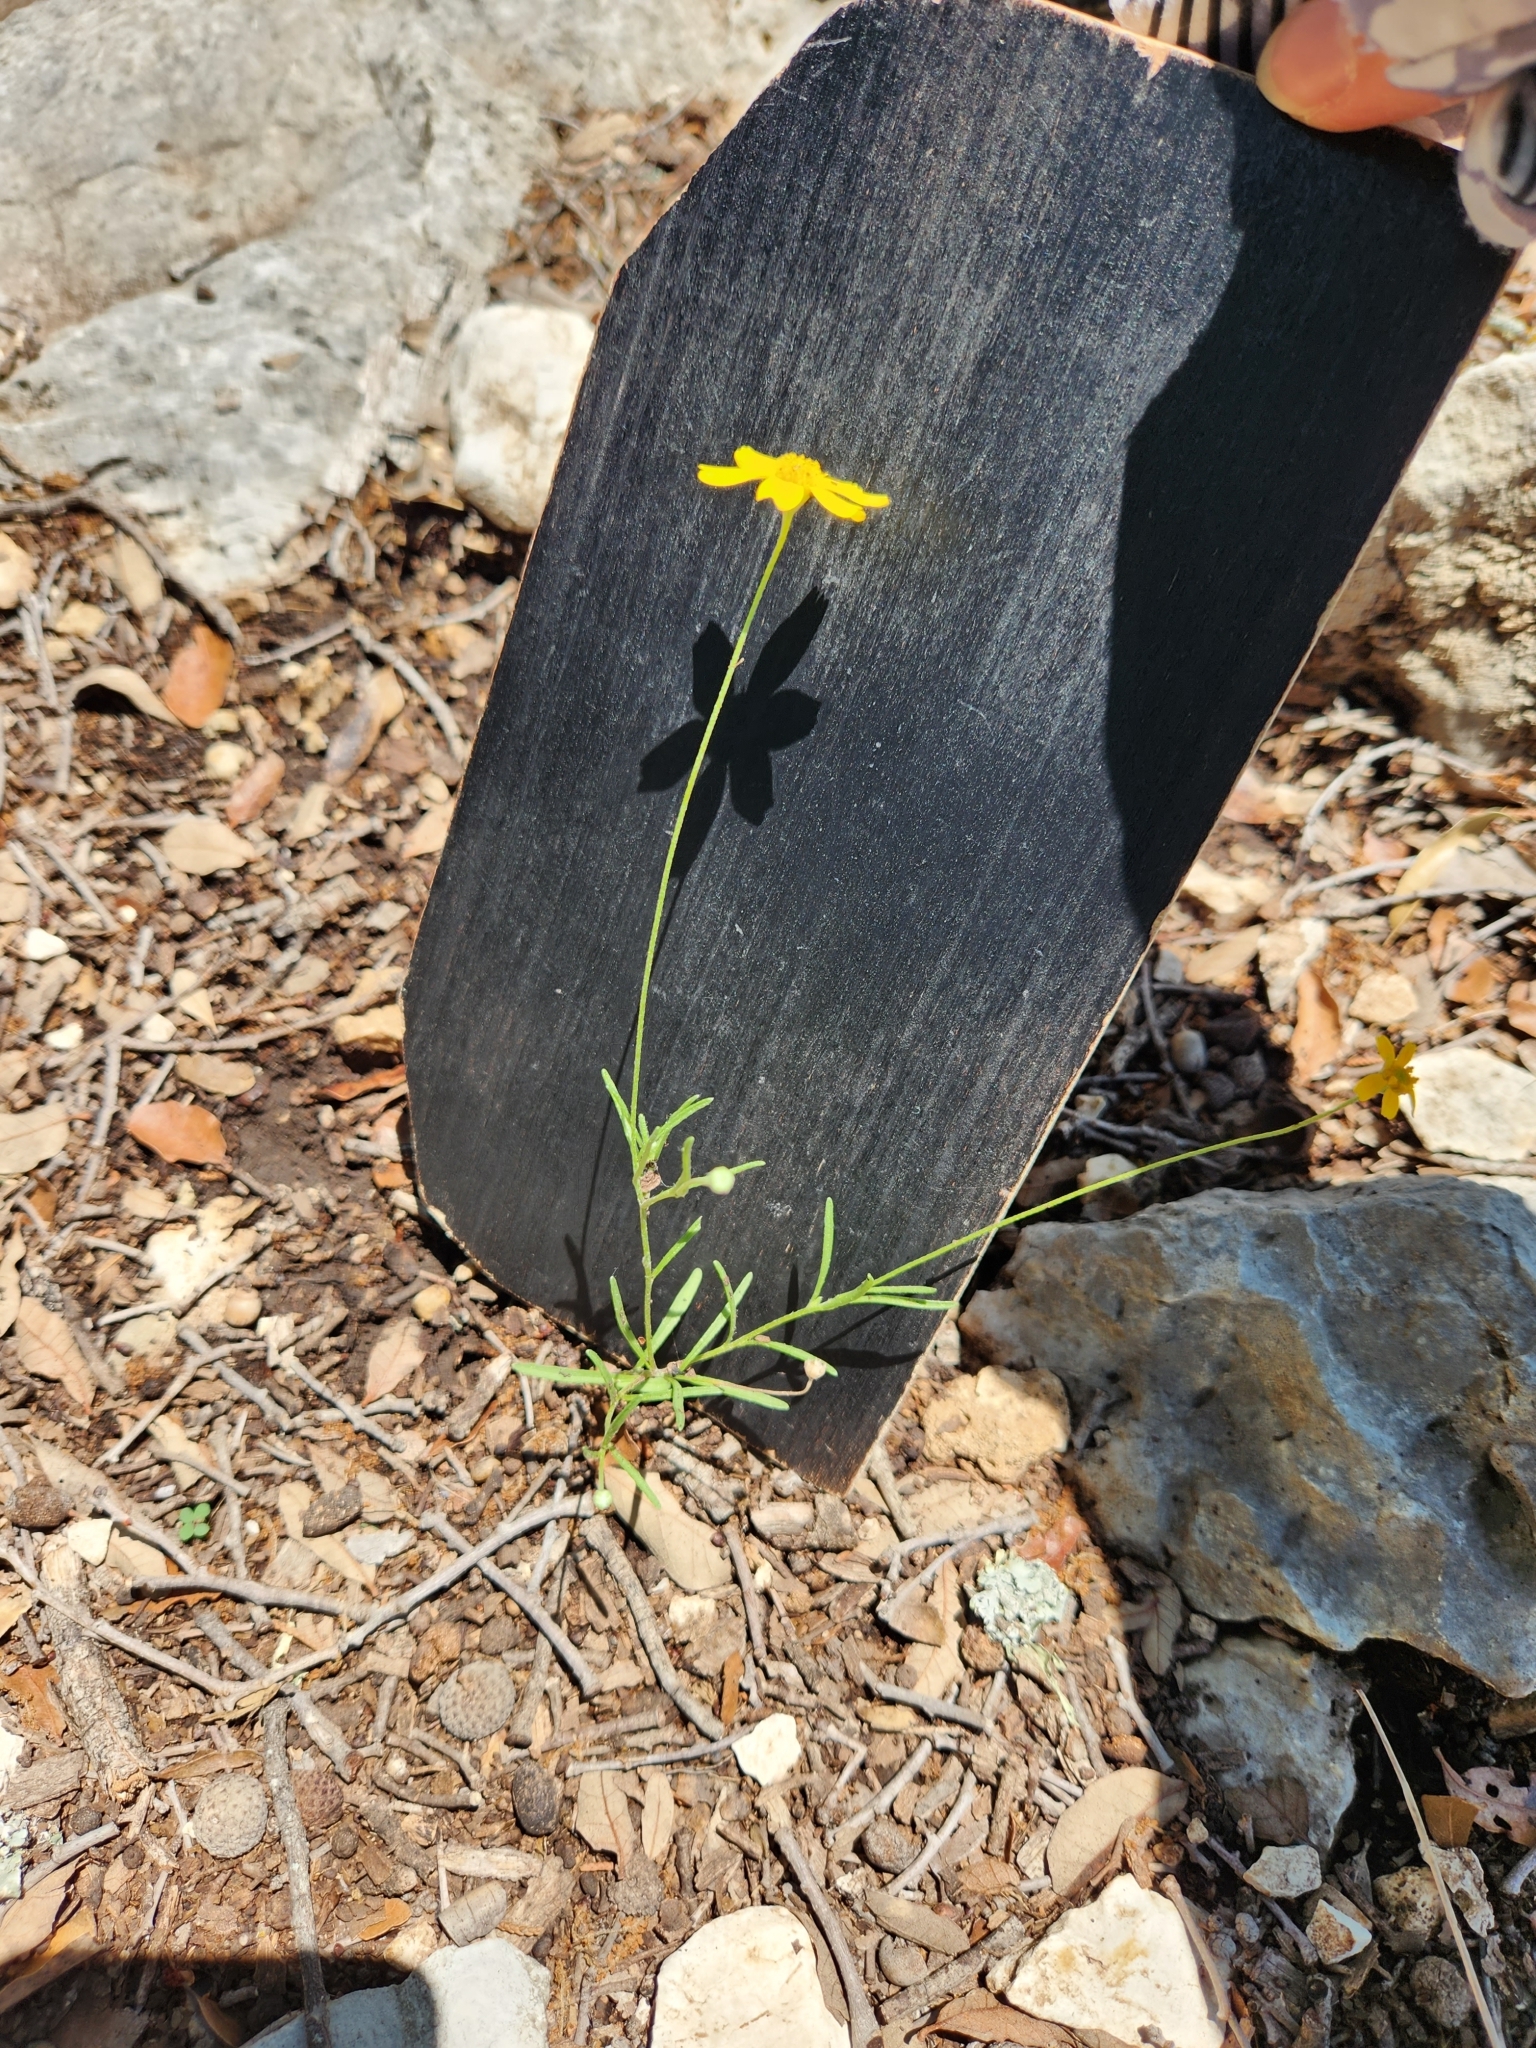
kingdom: Plantae
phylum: Tracheophyta
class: Magnoliopsida
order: Asterales
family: Asteraceae
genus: Tetraneuris
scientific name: Tetraneuris linearifolia
